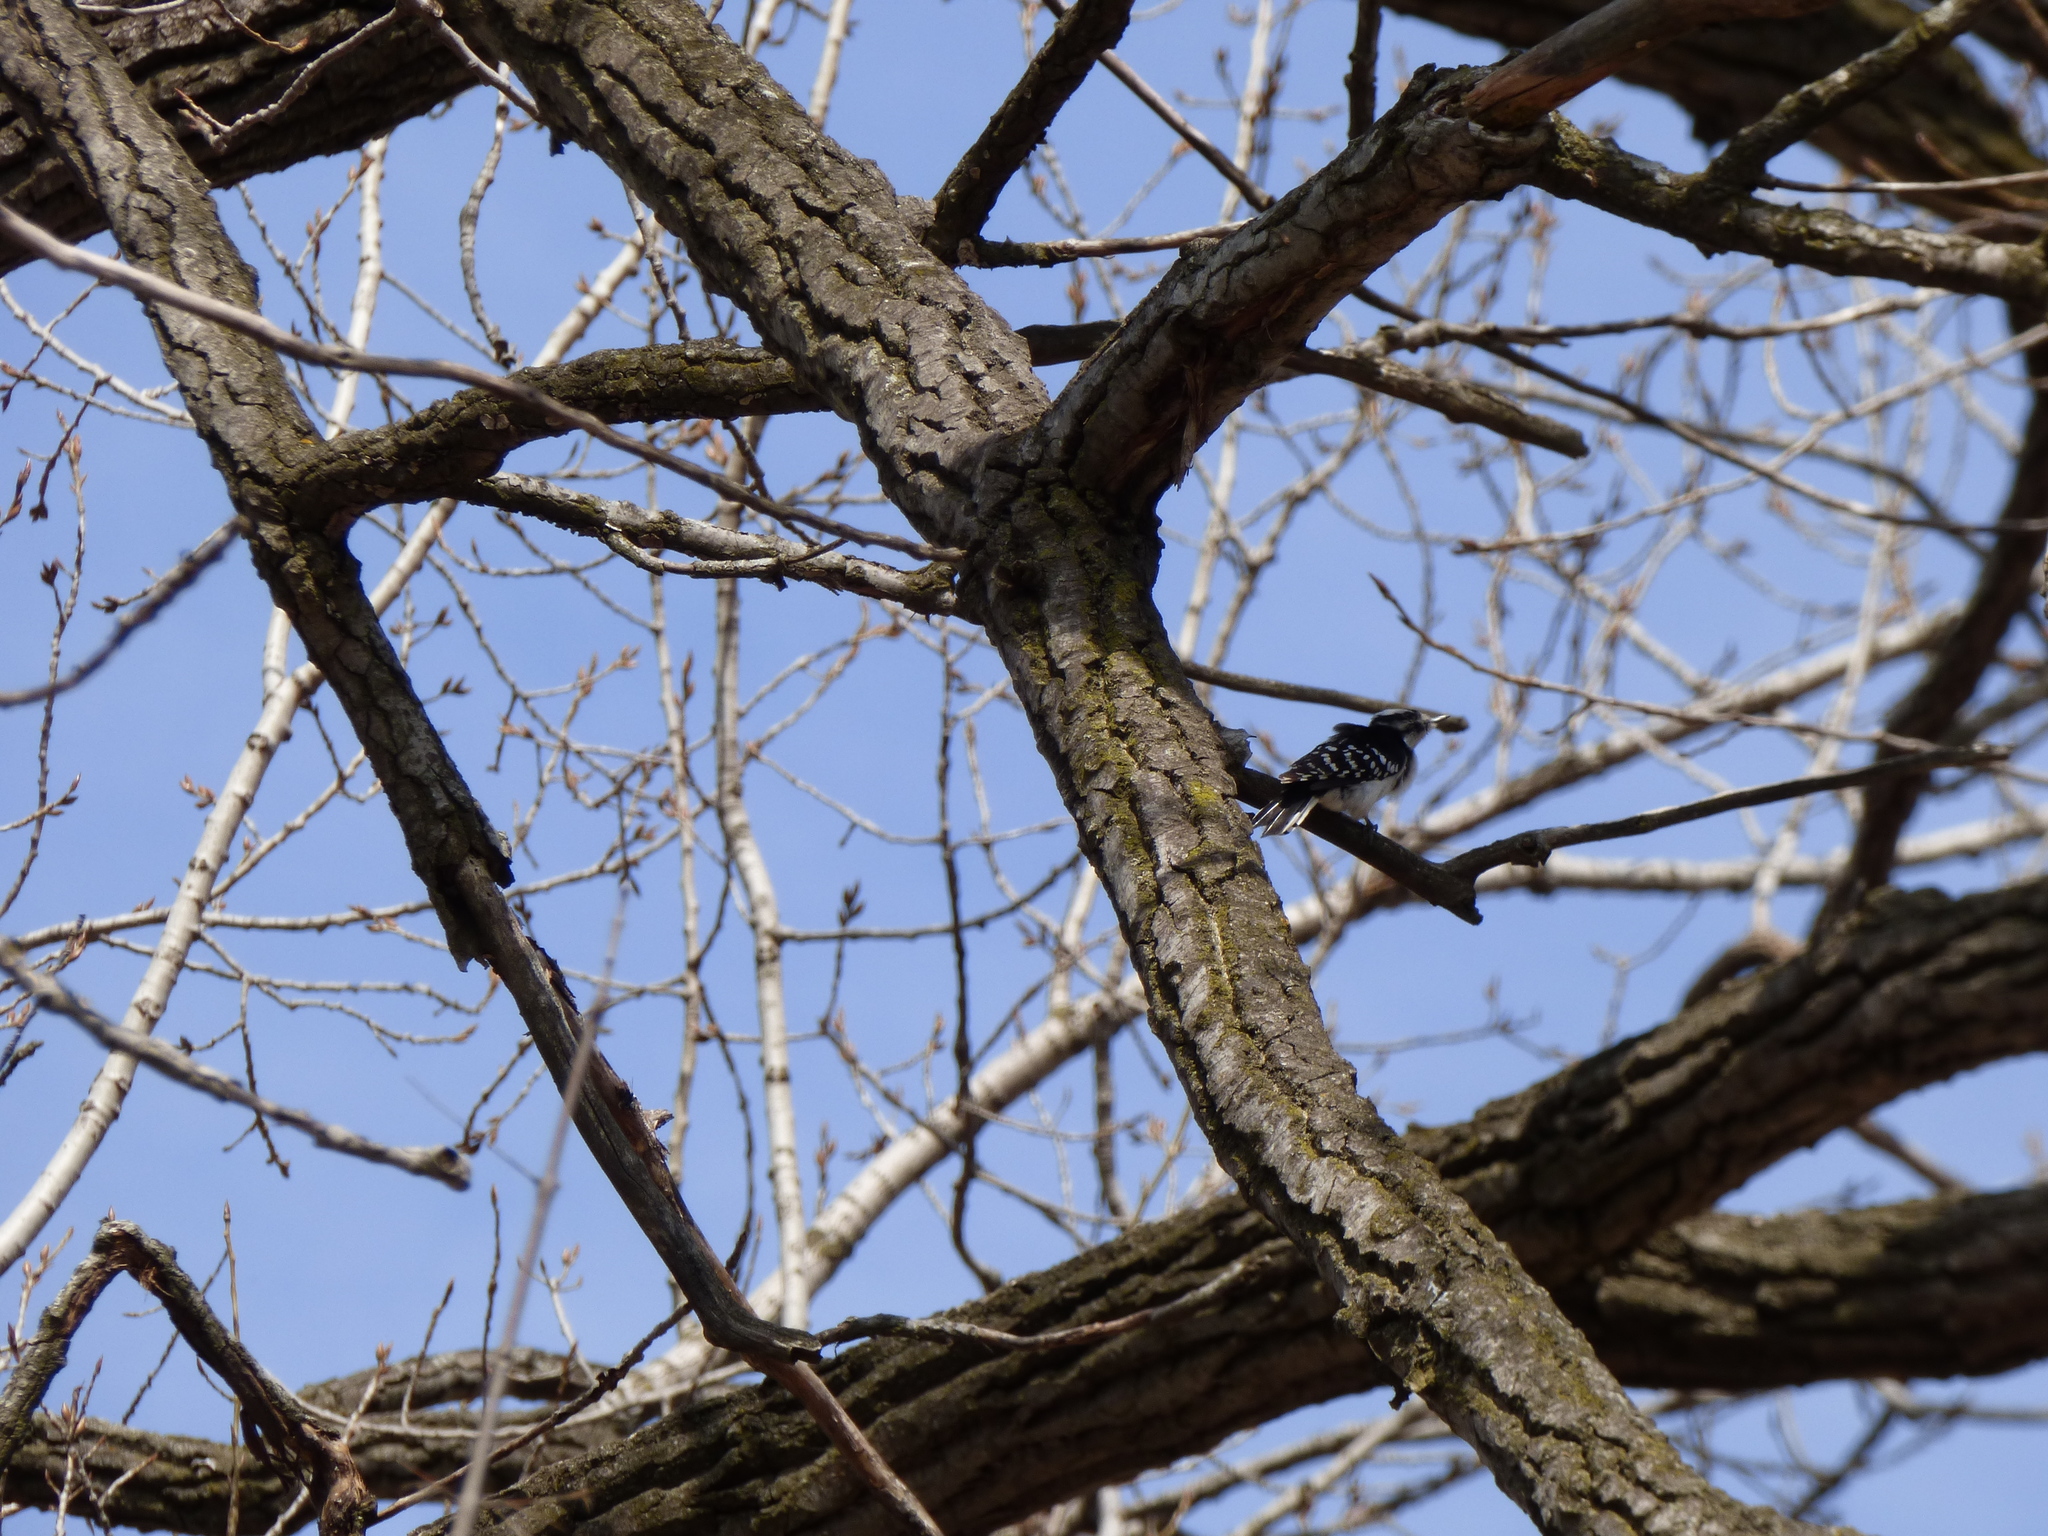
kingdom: Animalia
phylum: Chordata
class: Aves
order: Piciformes
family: Picidae
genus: Dryobates
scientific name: Dryobates pubescens
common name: Downy woodpecker
